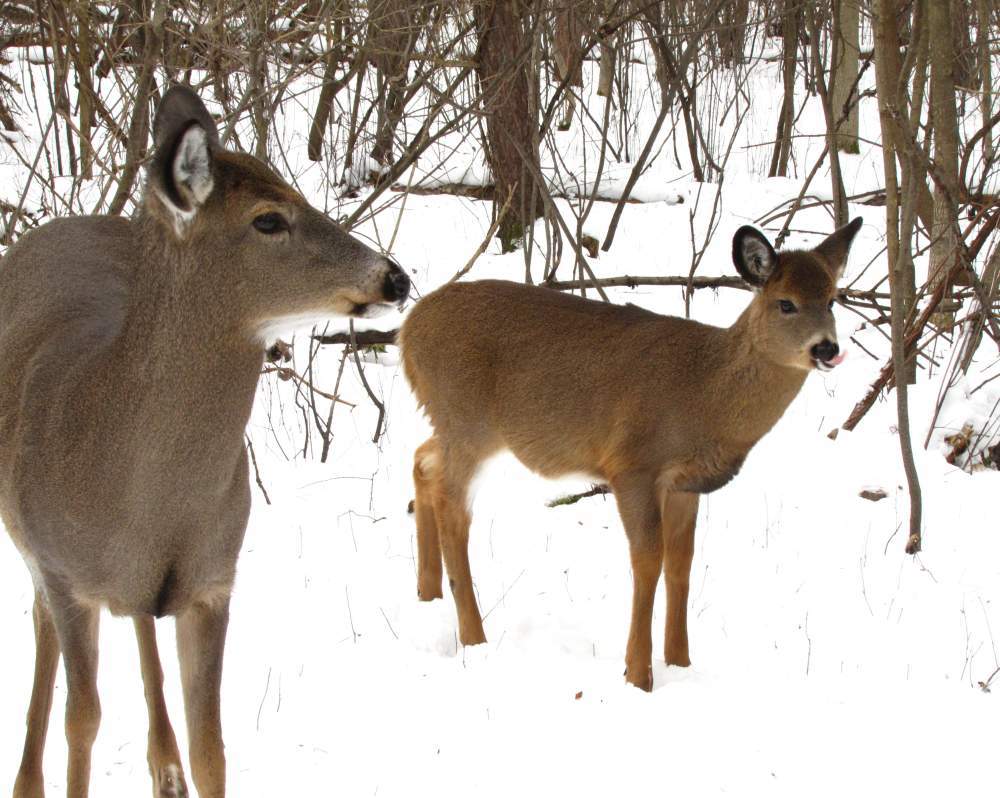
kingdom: Animalia
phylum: Chordata
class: Mammalia
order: Artiodactyla
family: Cervidae
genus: Odocoileus
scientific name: Odocoileus virginianus
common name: White-tailed deer
